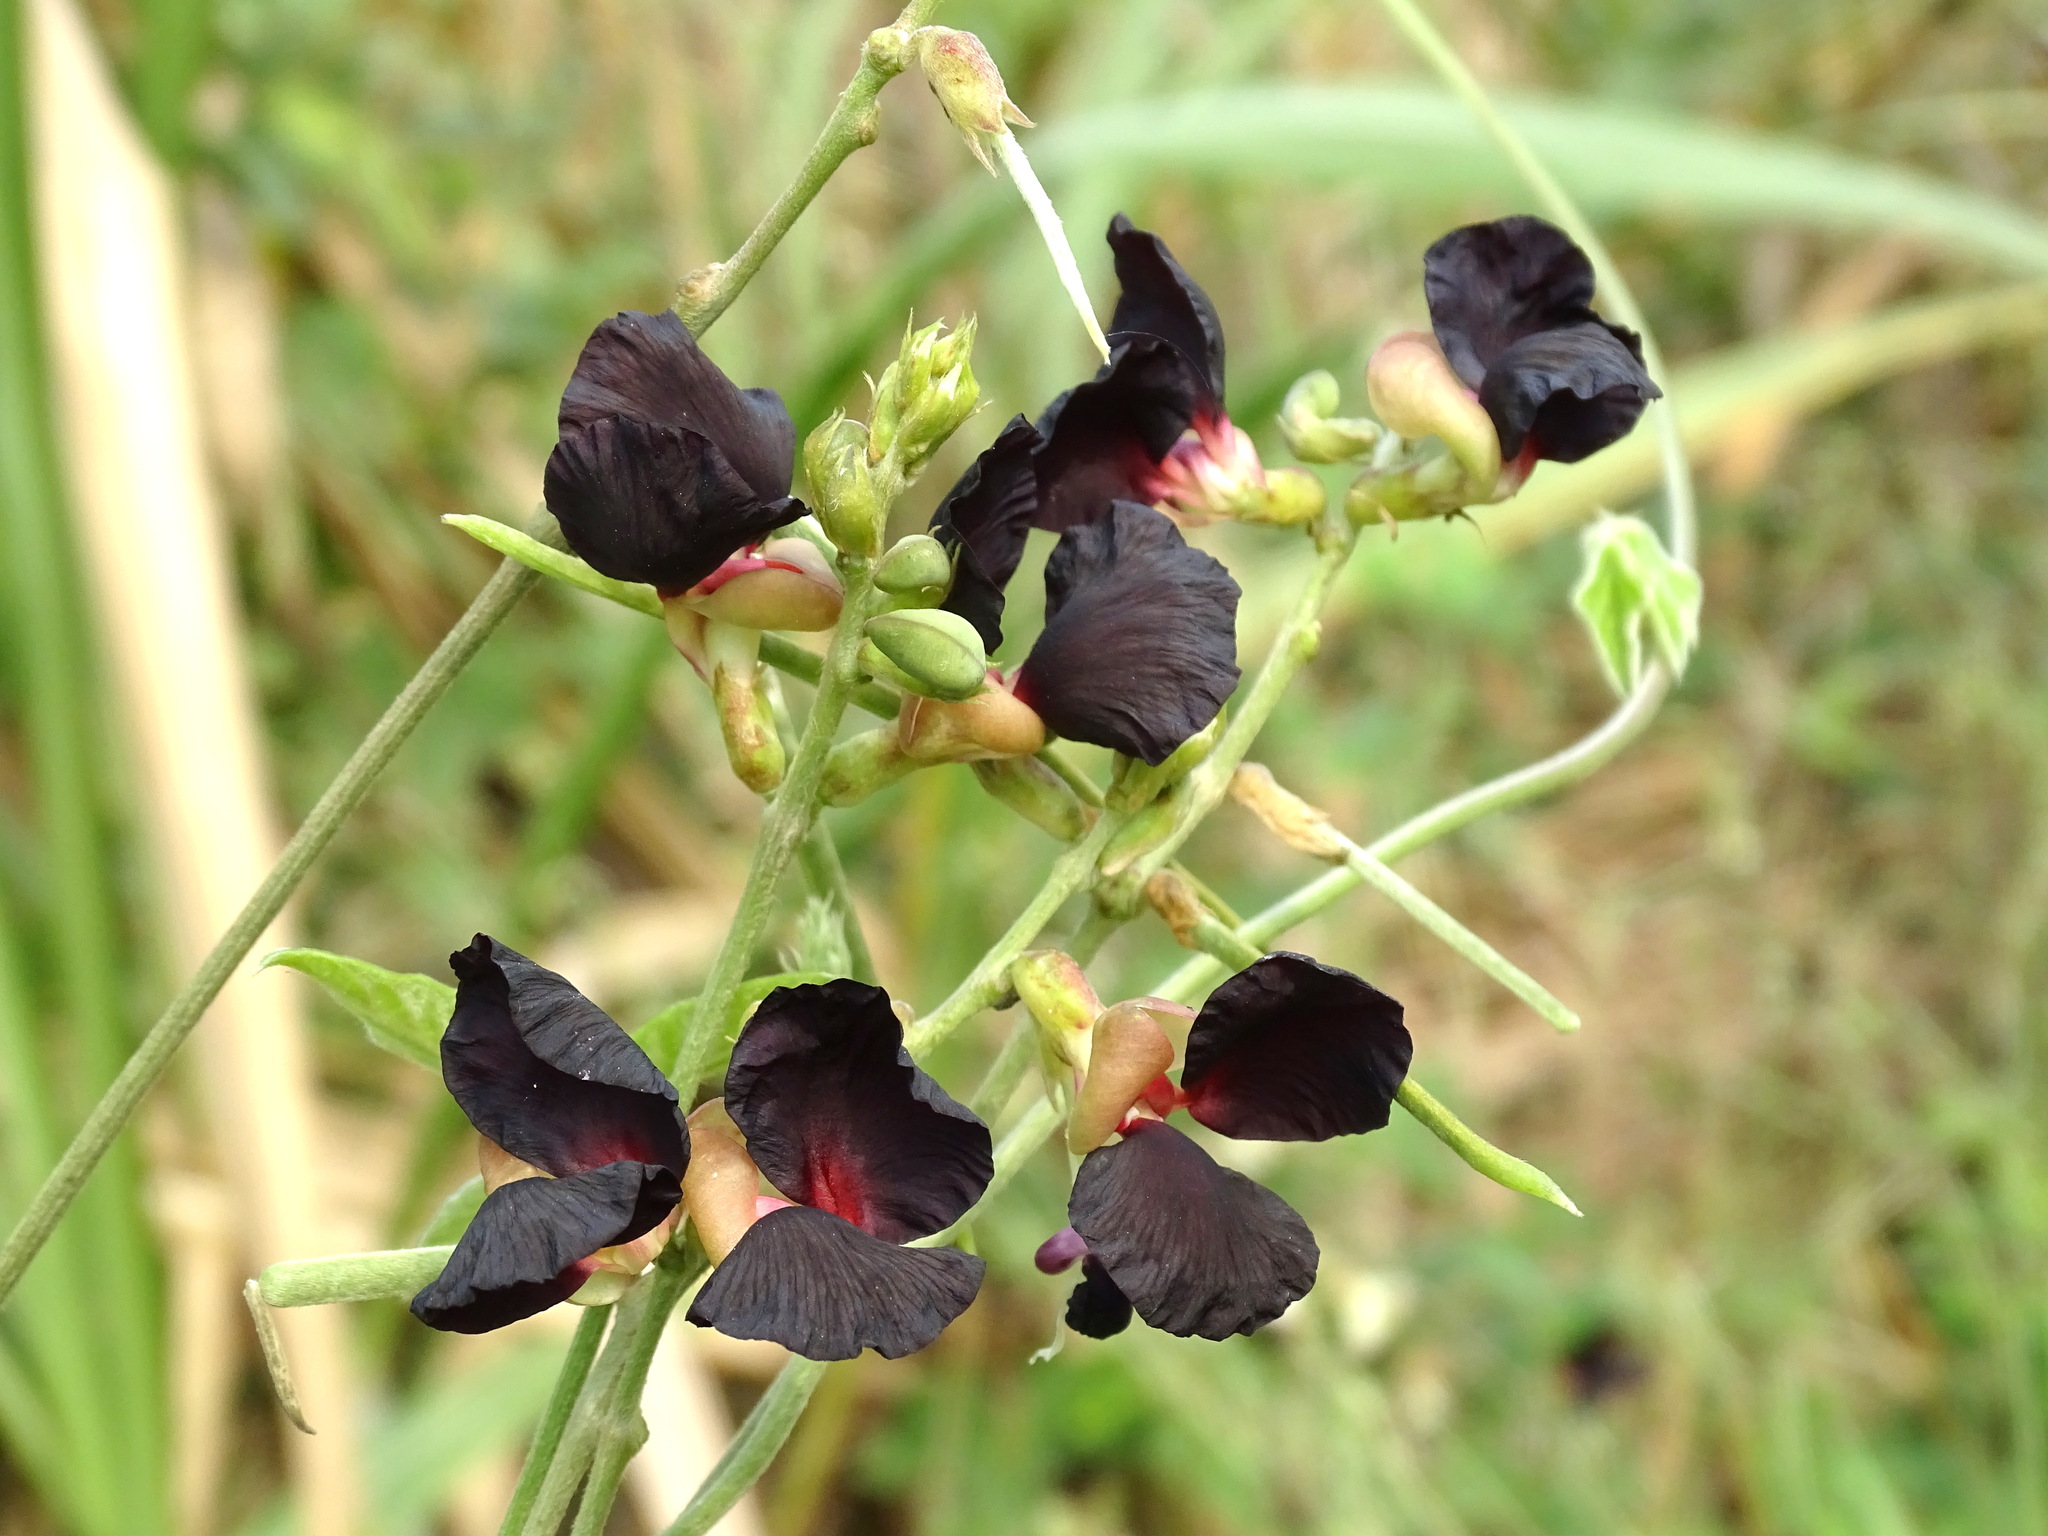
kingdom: Plantae
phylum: Tracheophyta
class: Magnoliopsida
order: Fabales
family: Fabaceae
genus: Macroptilium
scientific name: Macroptilium atropurpureum
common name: Purple bushbean
